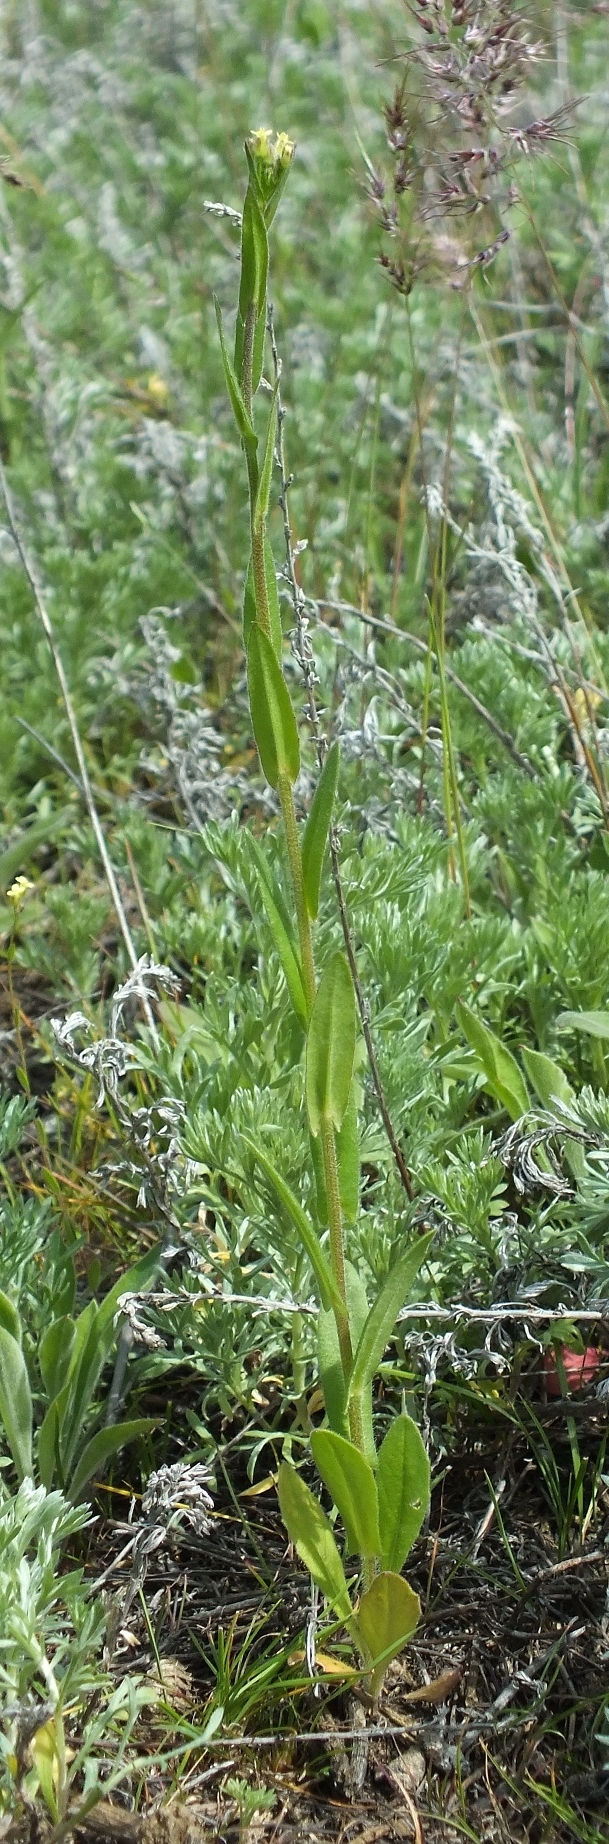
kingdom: Plantae
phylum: Tracheophyta
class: Magnoliopsida
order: Brassicales
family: Brassicaceae
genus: Camelina
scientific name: Camelina microcarpa
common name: Lesser gold-of-pleasure
